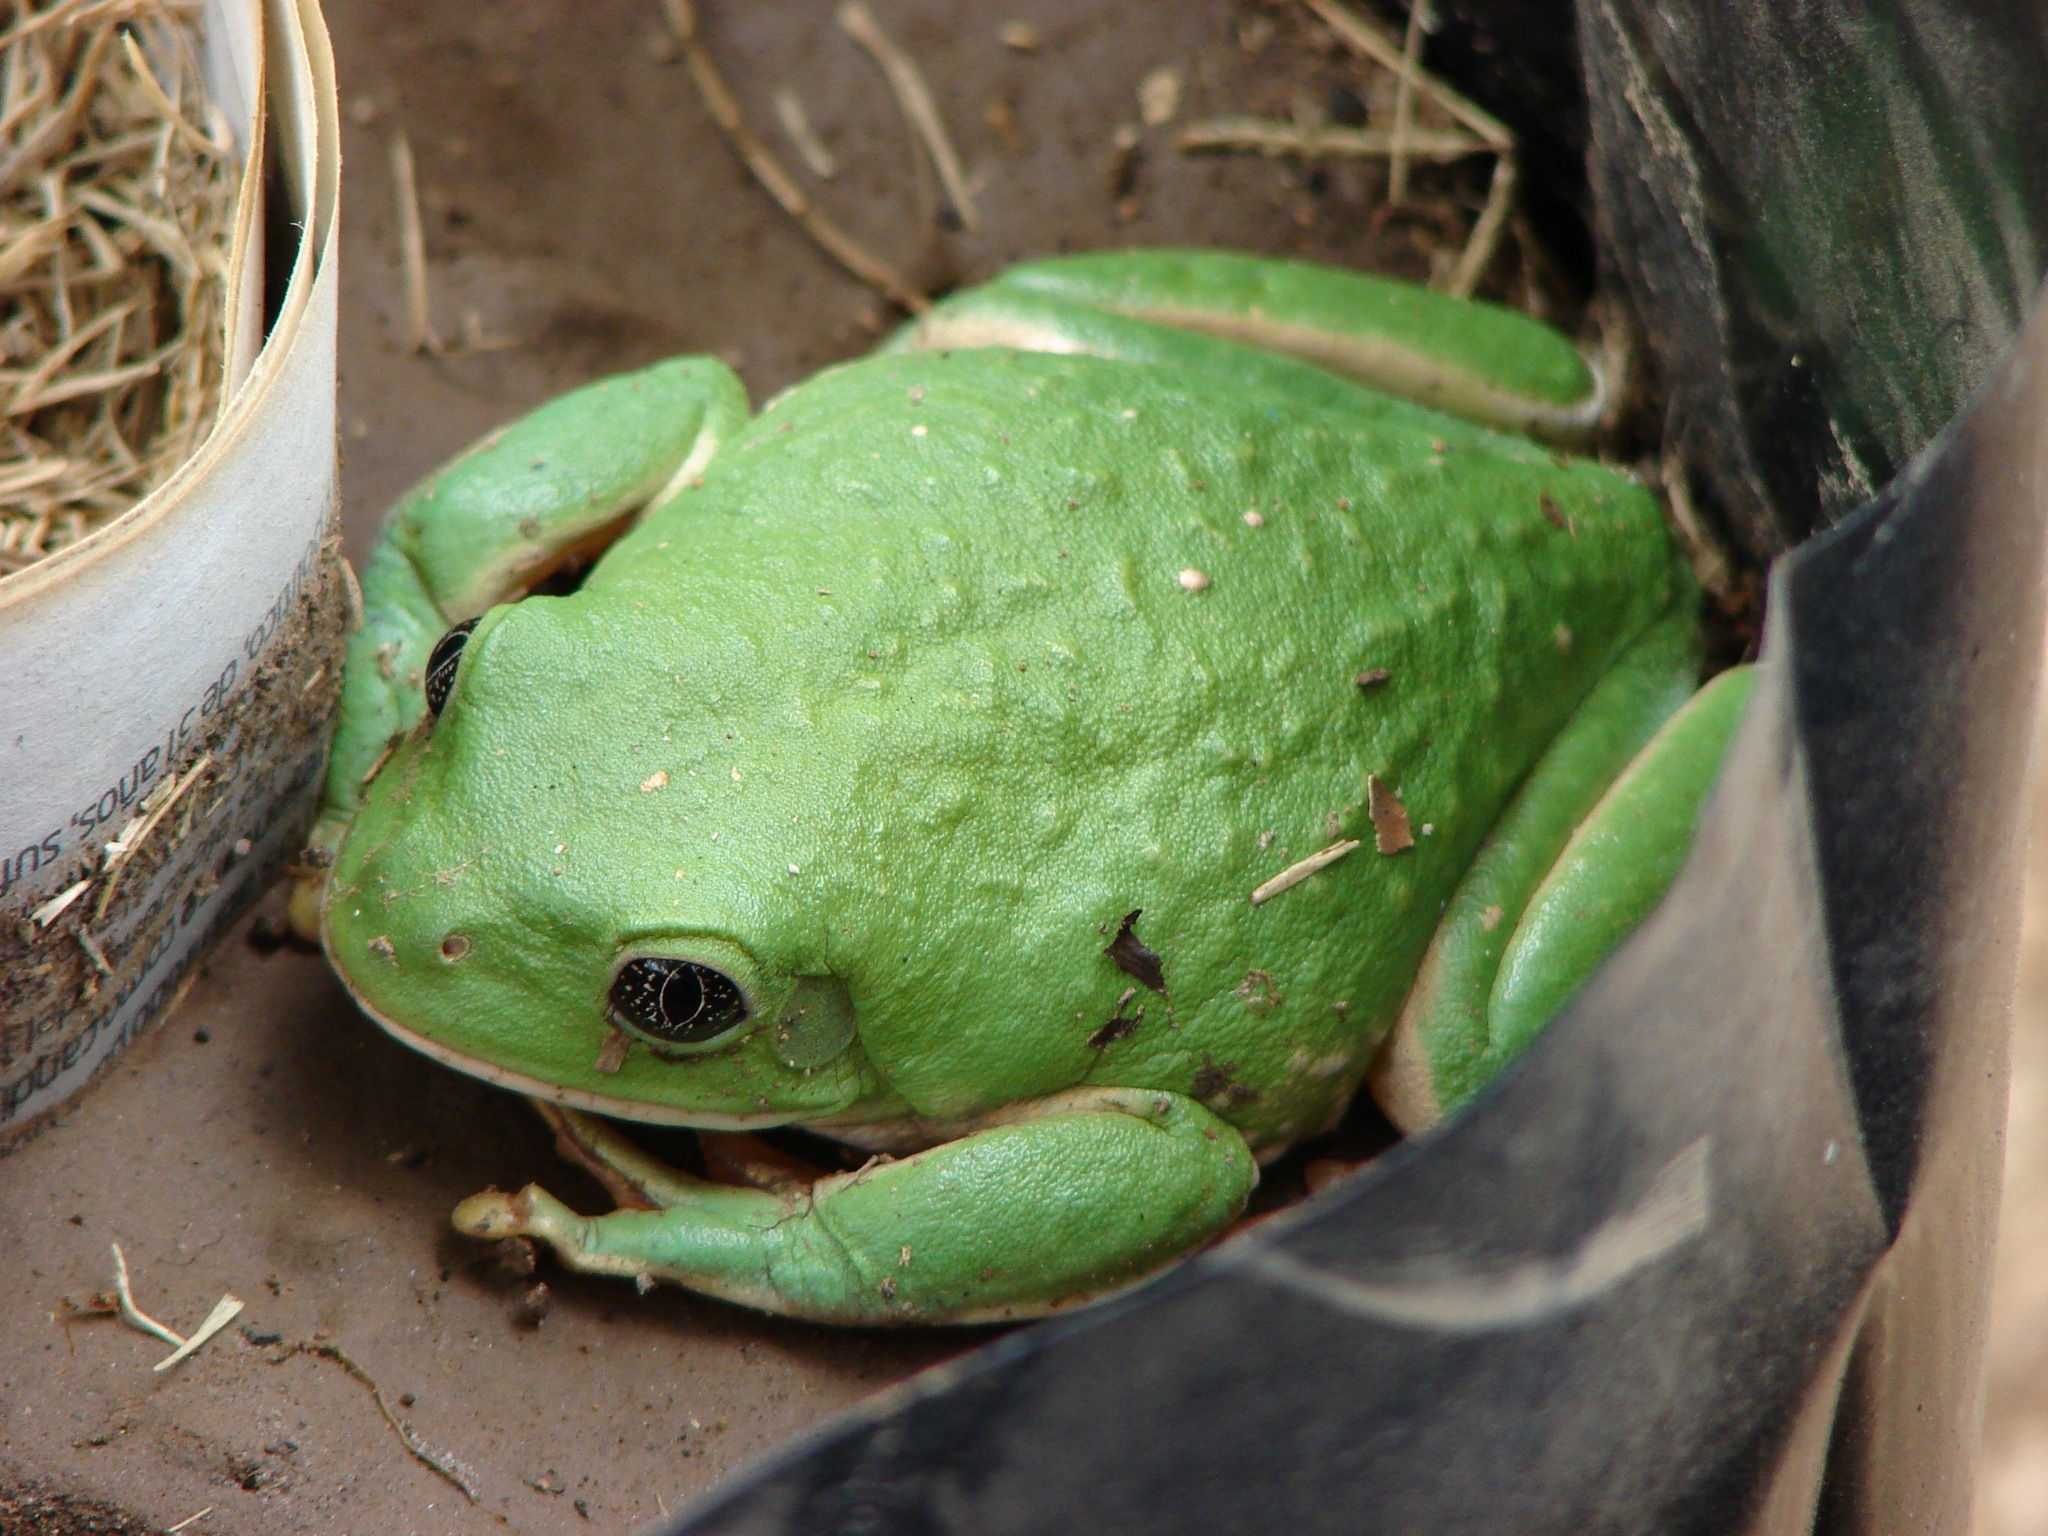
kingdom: Animalia
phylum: Chordata
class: Amphibia
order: Anura
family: Phyllomedusidae
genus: Agalychnis
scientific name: Agalychnis dacnicolor
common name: Mexican giant tree frog
